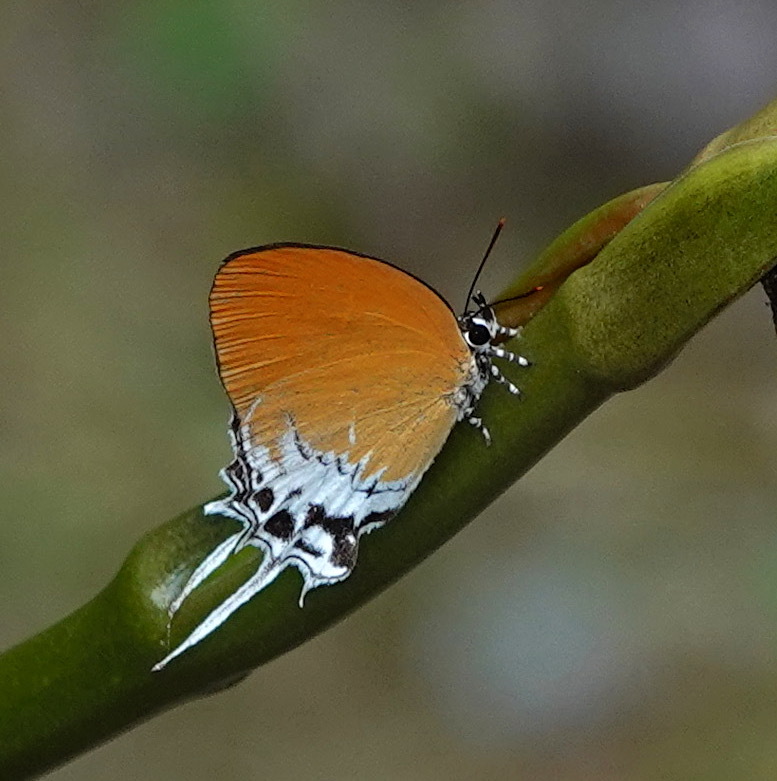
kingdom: Animalia
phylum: Arthropoda
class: Insecta
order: Lepidoptera
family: Lycaenidae
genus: Eooxylides
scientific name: Eooxylides tharis
